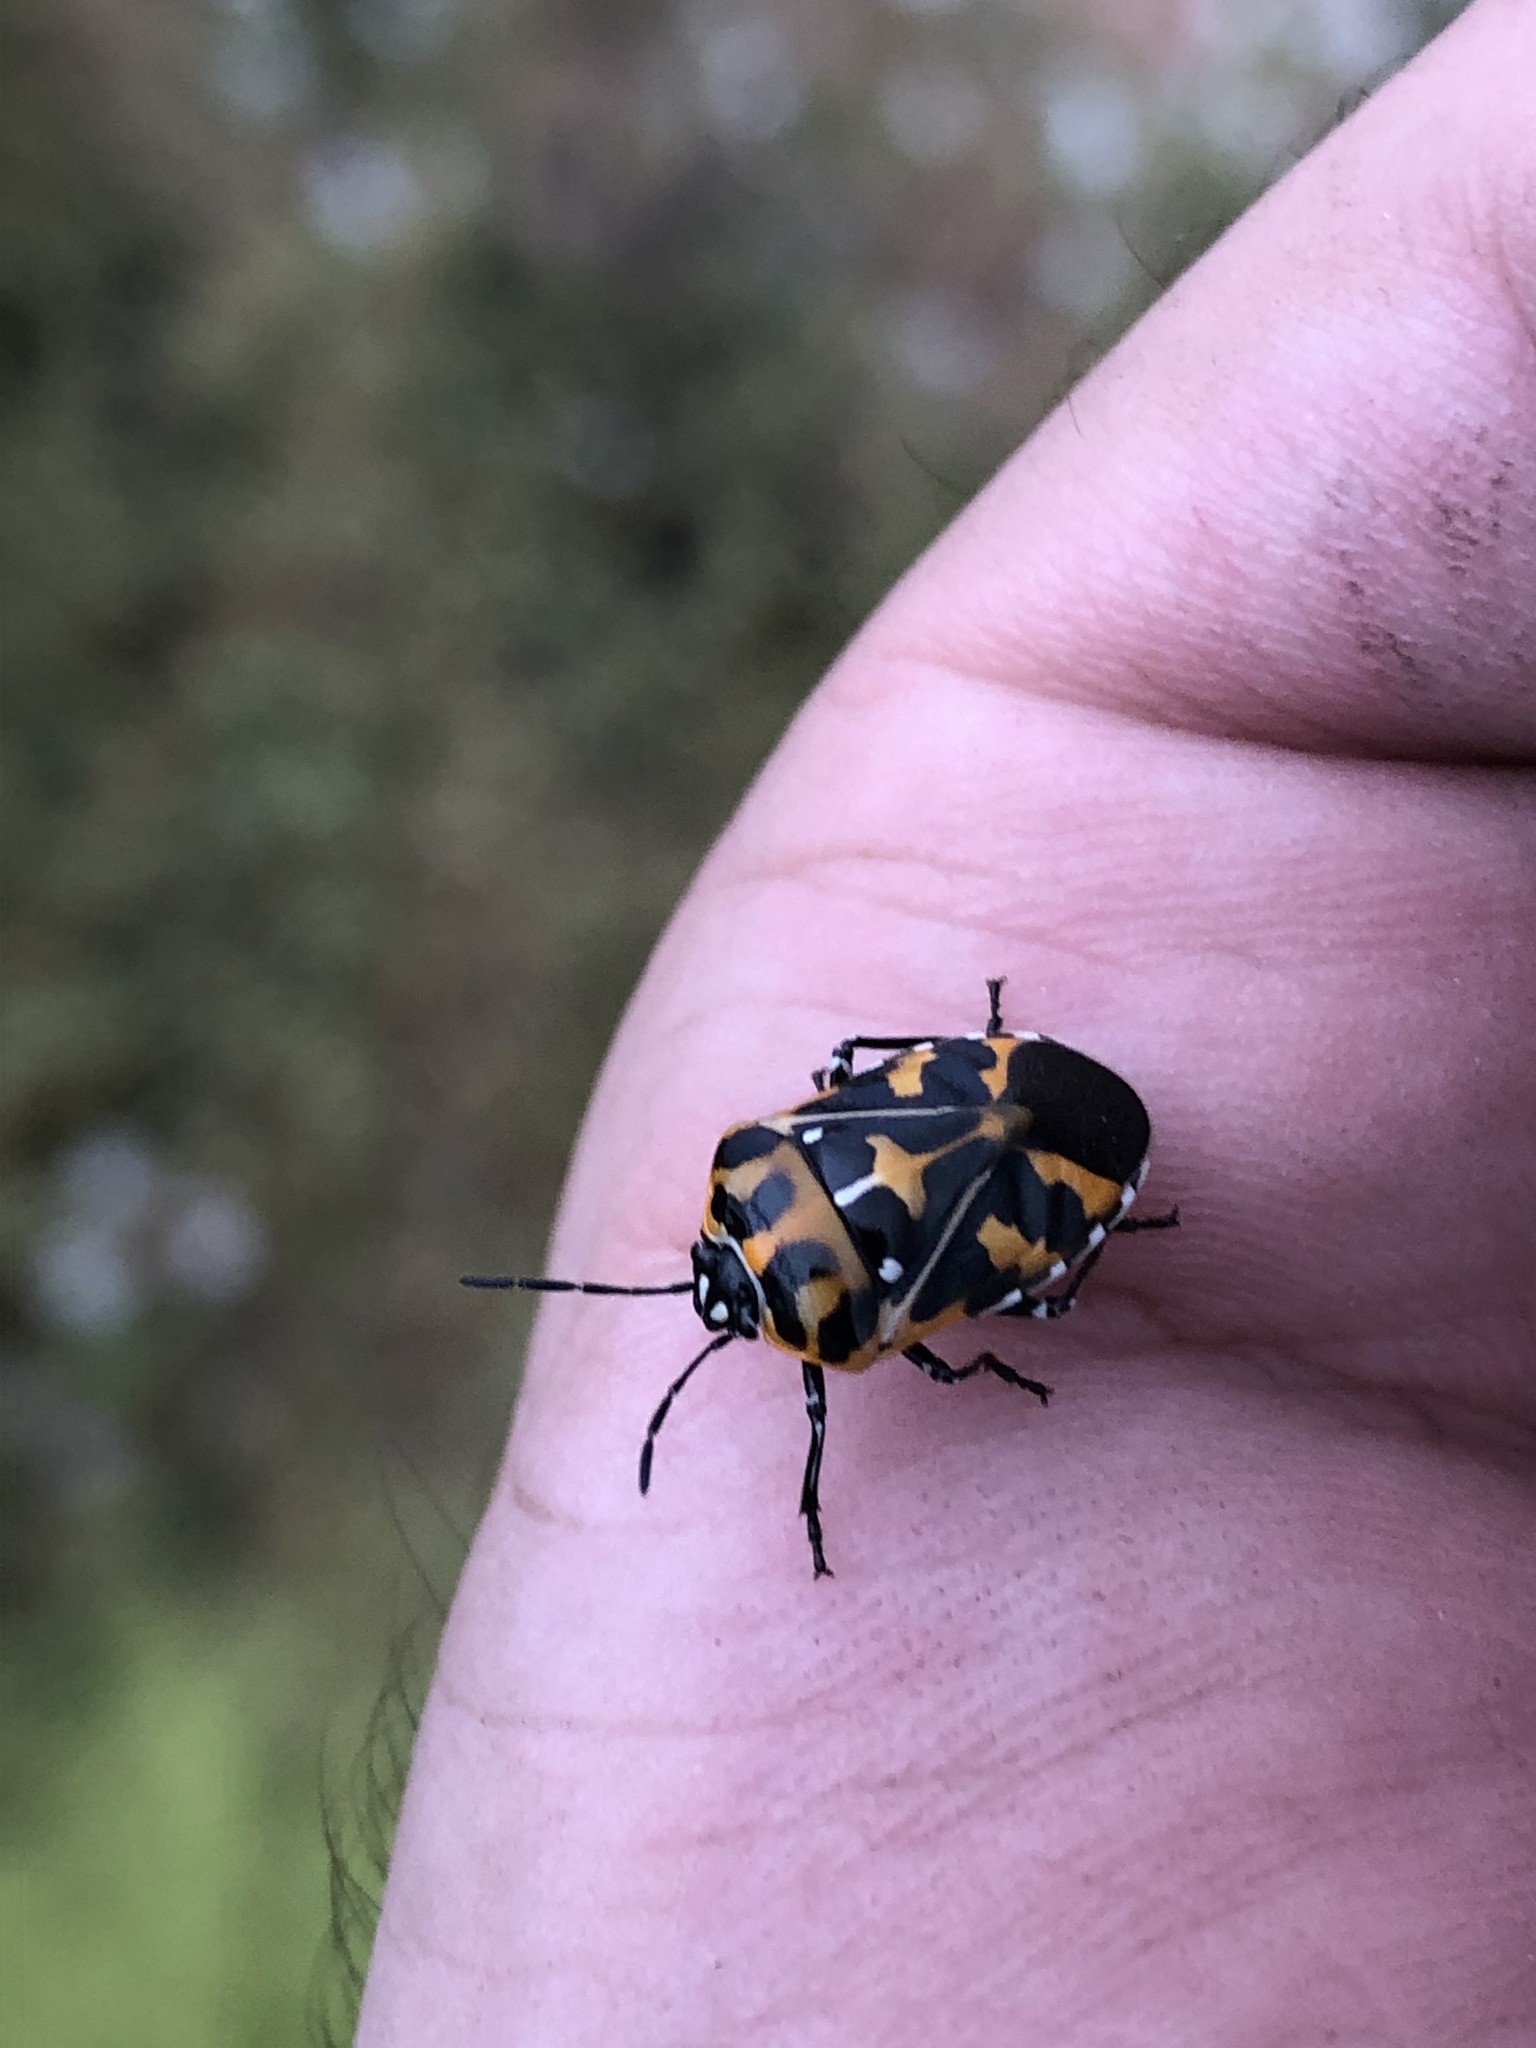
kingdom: Animalia
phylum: Arthropoda
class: Insecta
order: Hemiptera
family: Pentatomidae
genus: Murgantia
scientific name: Murgantia histrionica
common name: Harlequin bug
